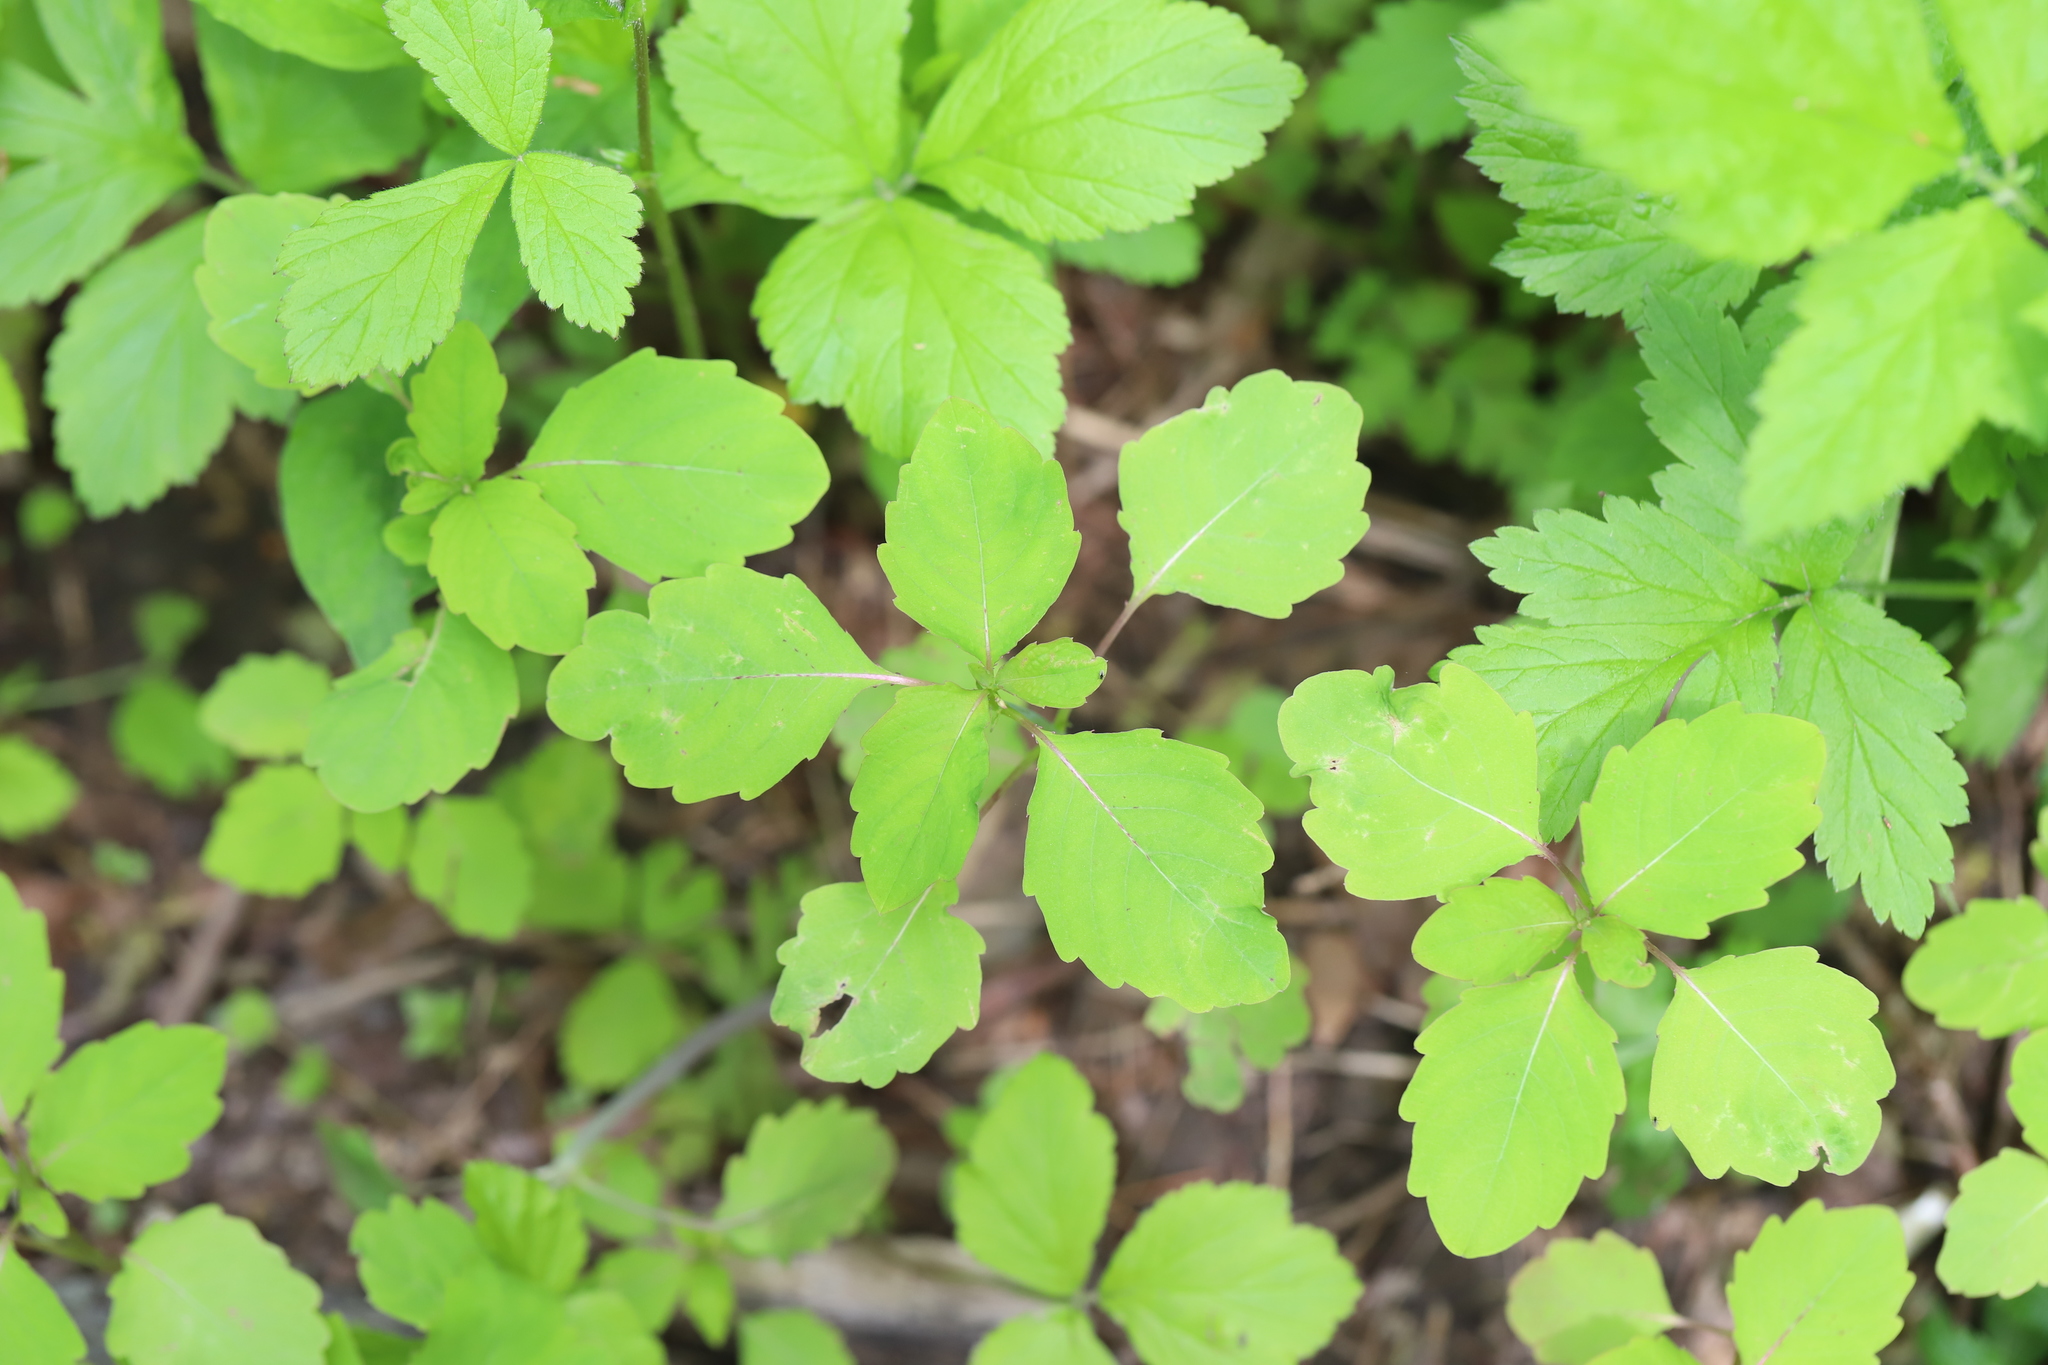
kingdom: Plantae
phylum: Tracheophyta
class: Magnoliopsida
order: Ericales
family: Balsaminaceae
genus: Impatiens
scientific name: Impatiens capensis
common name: Orange balsam
